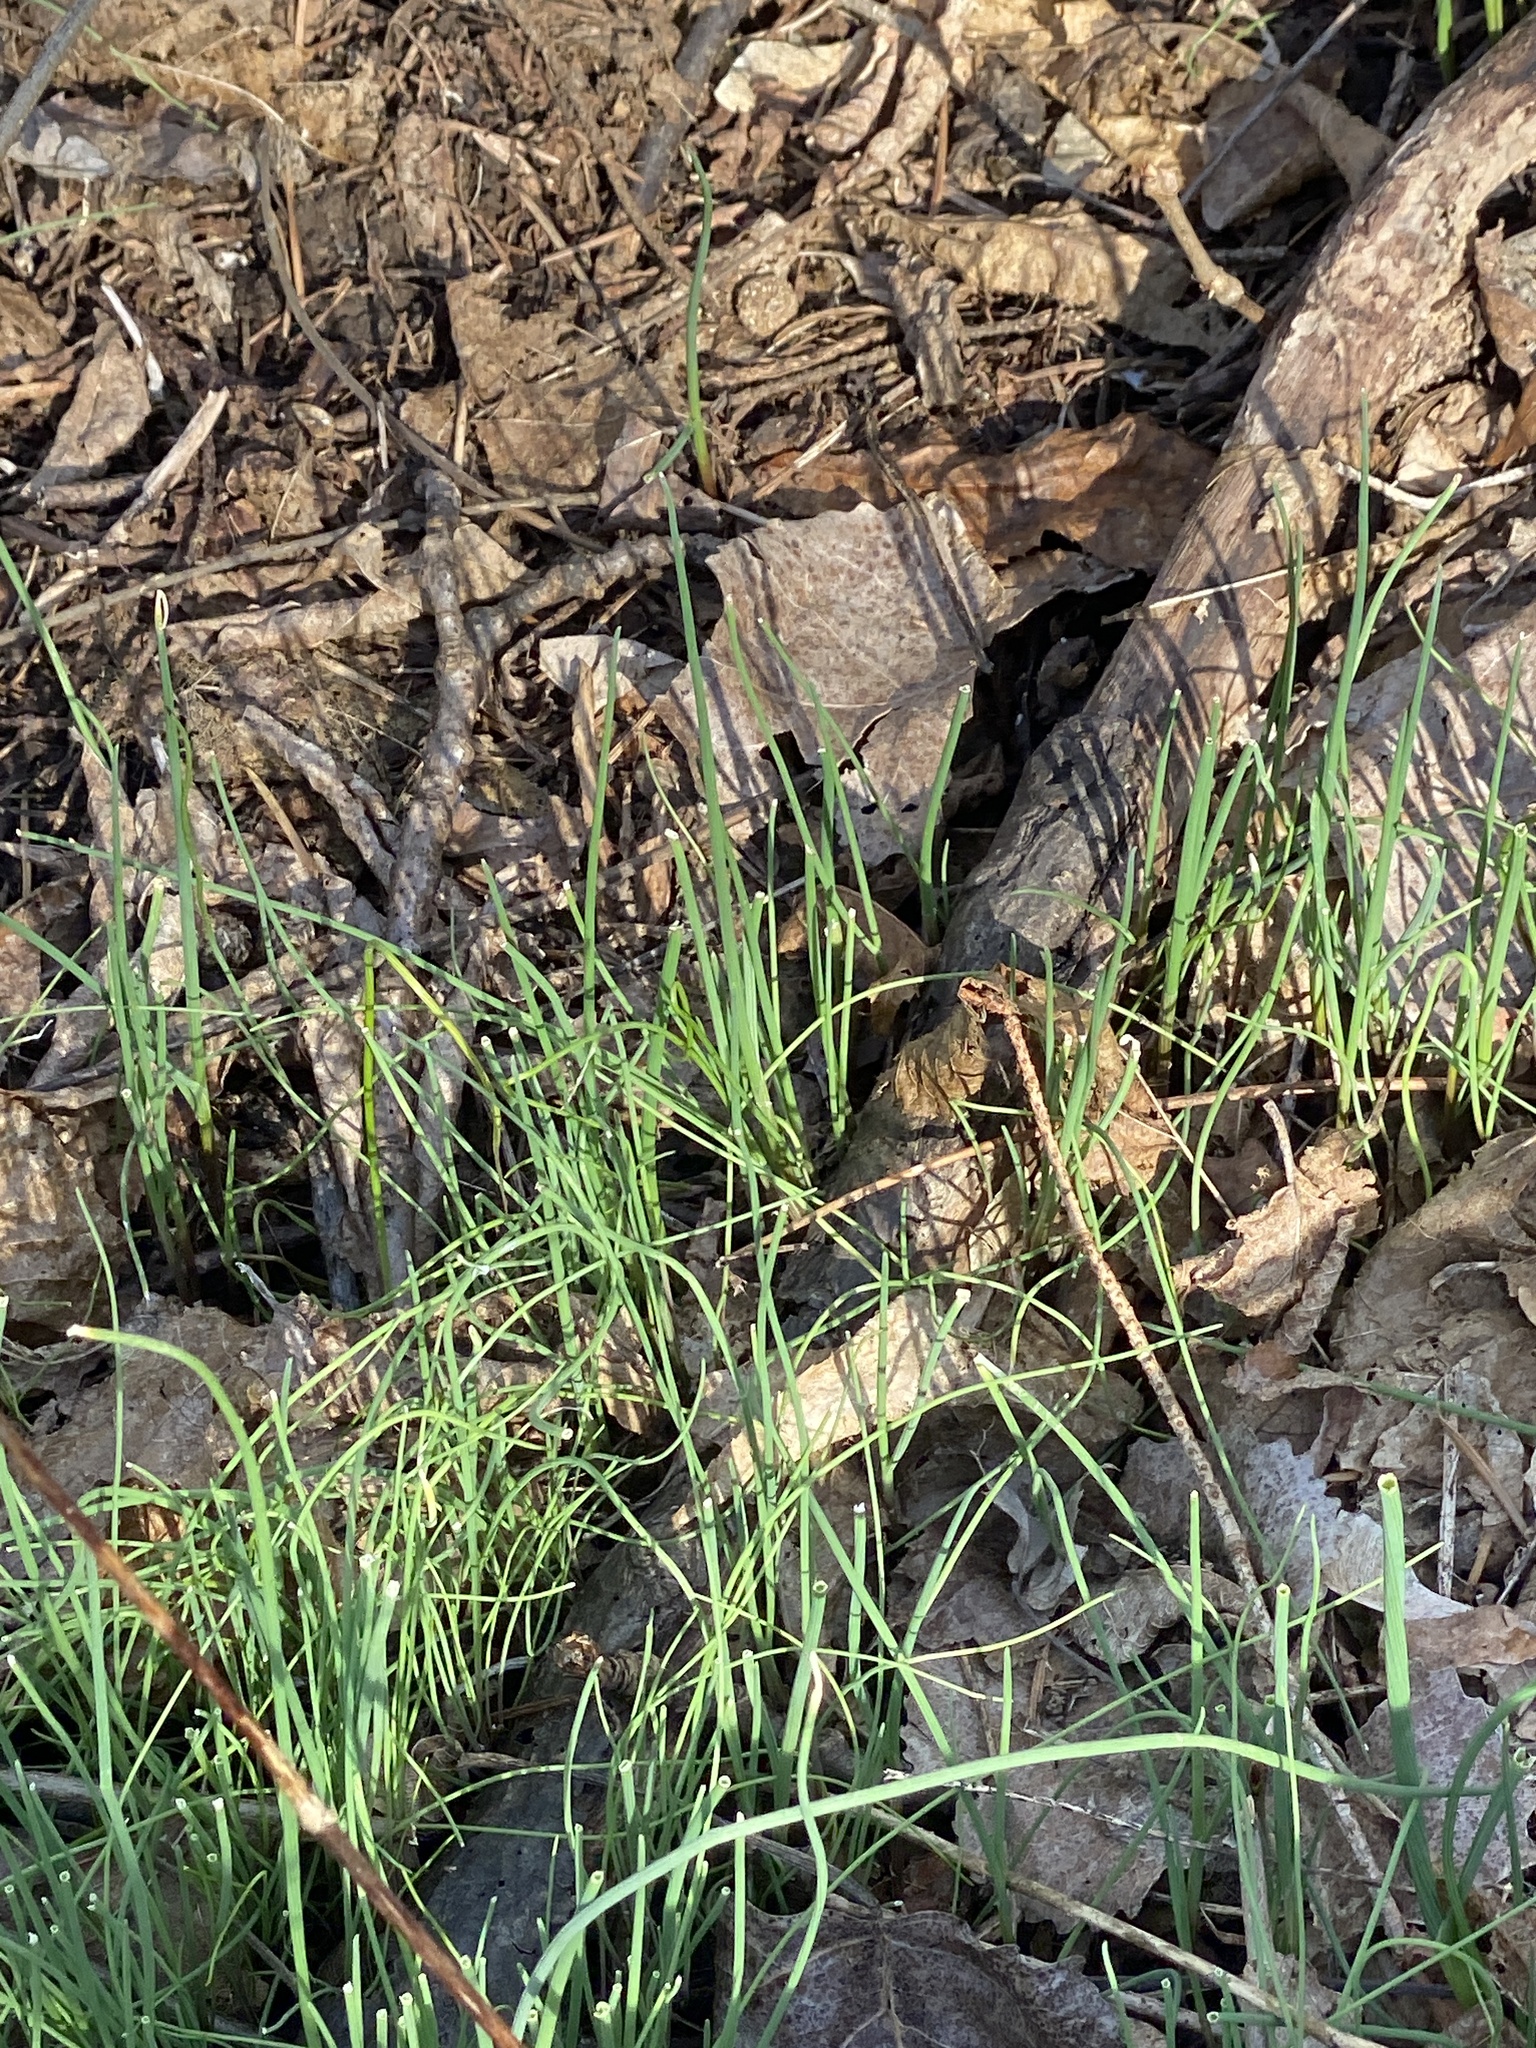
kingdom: Plantae
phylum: Tracheophyta
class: Liliopsida
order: Asparagales
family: Amaryllidaceae
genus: Allium
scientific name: Allium vineale
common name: Crow garlic
